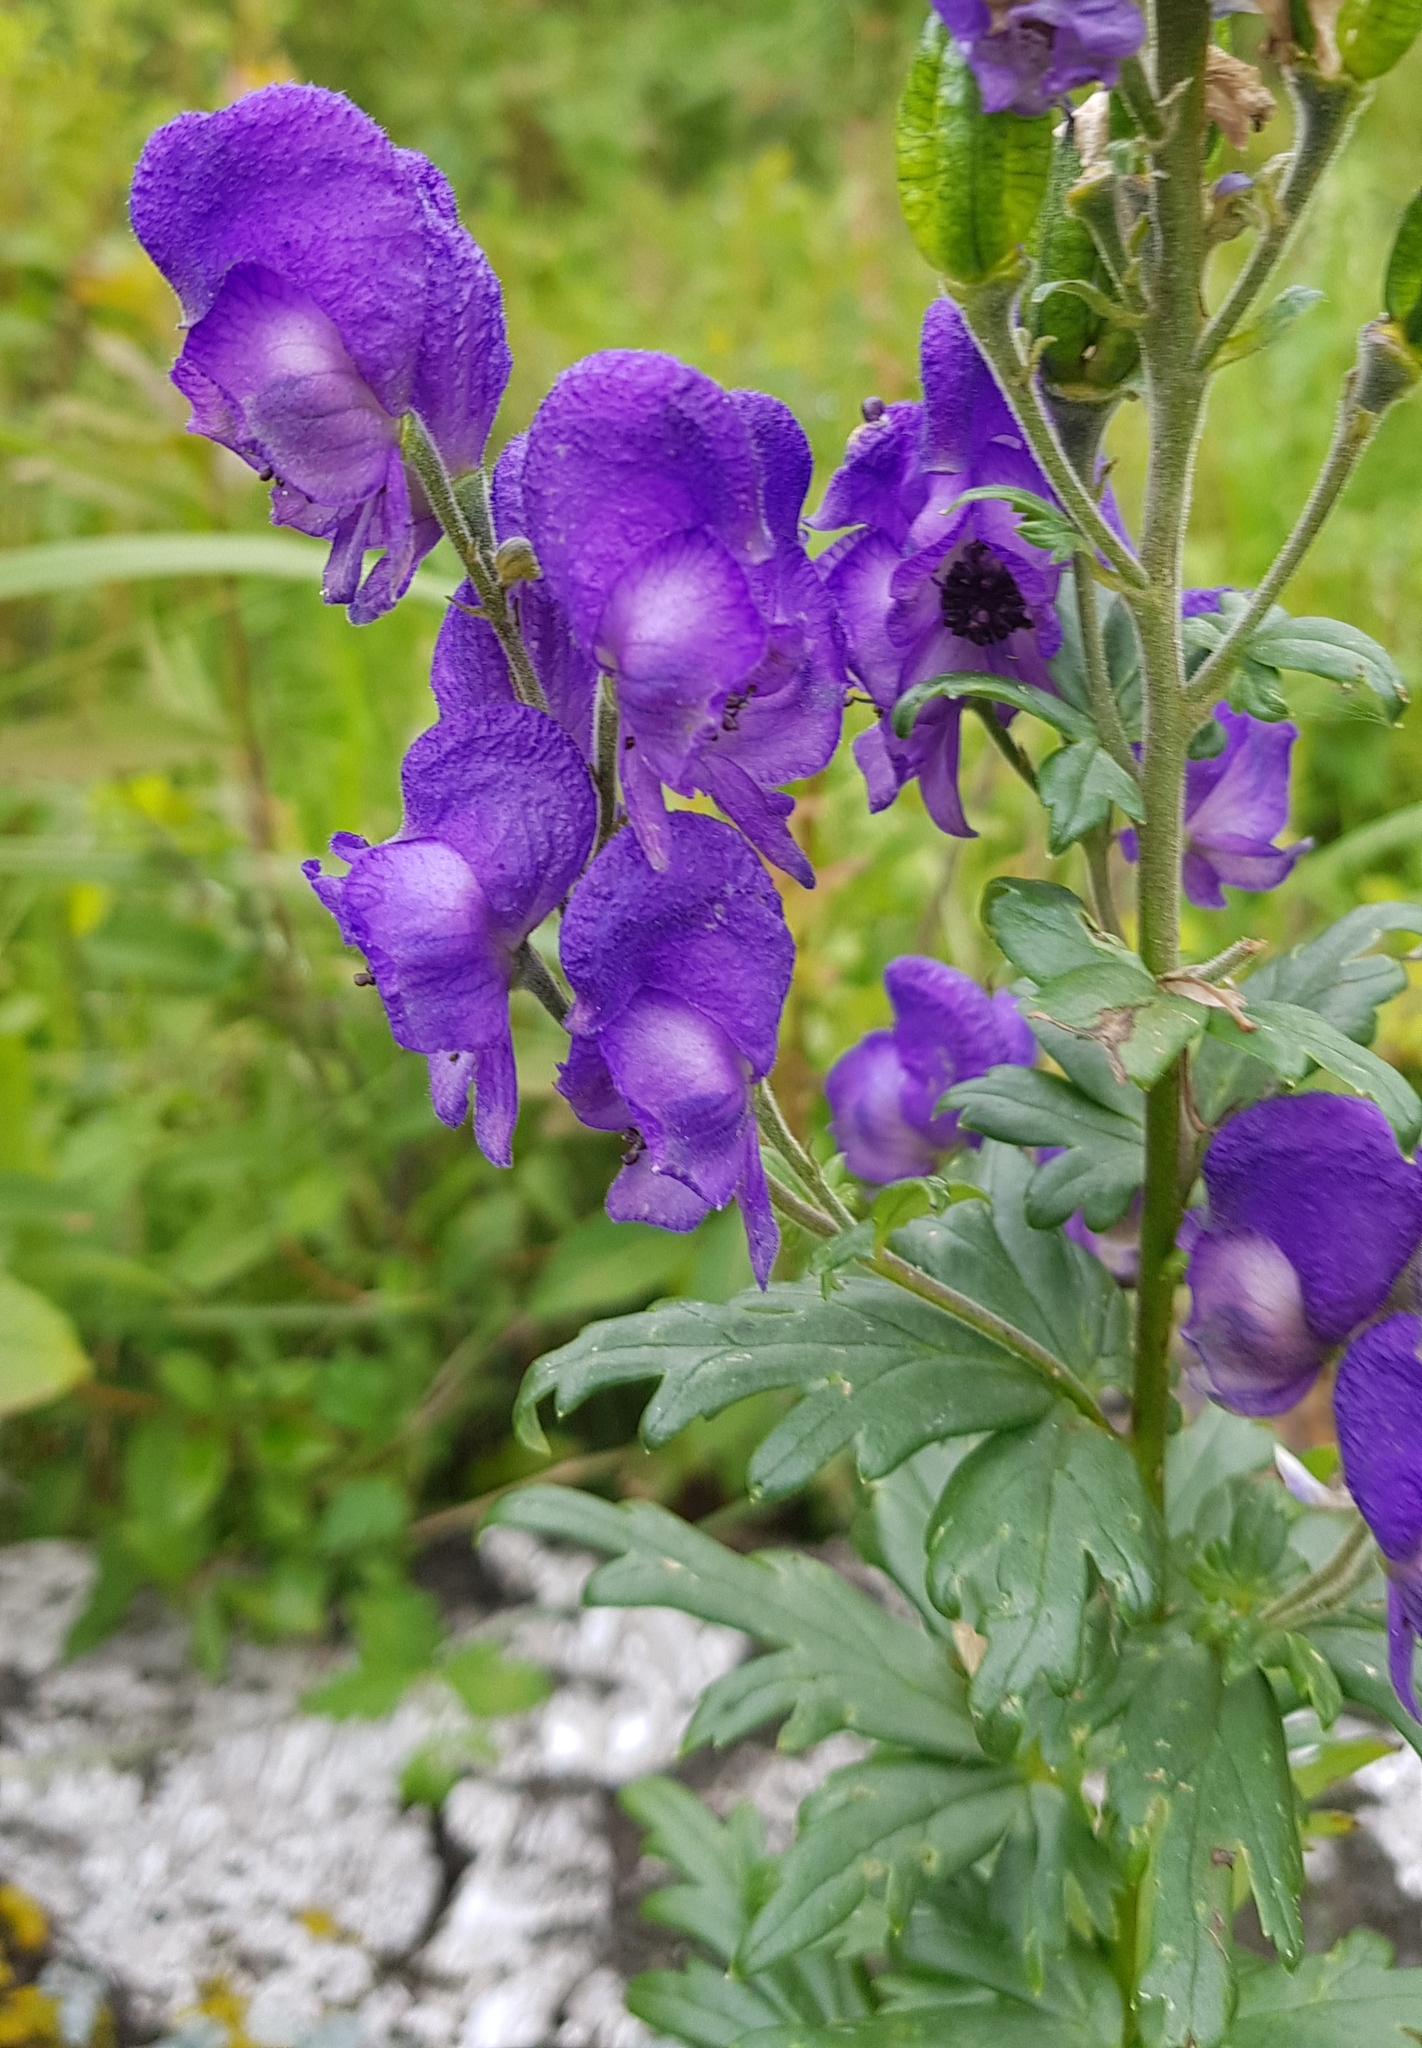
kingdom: Plantae
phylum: Tracheophyta
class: Magnoliopsida
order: Ranunculales
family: Ranunculaceae
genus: Aconitum
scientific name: Aconitum volubile
